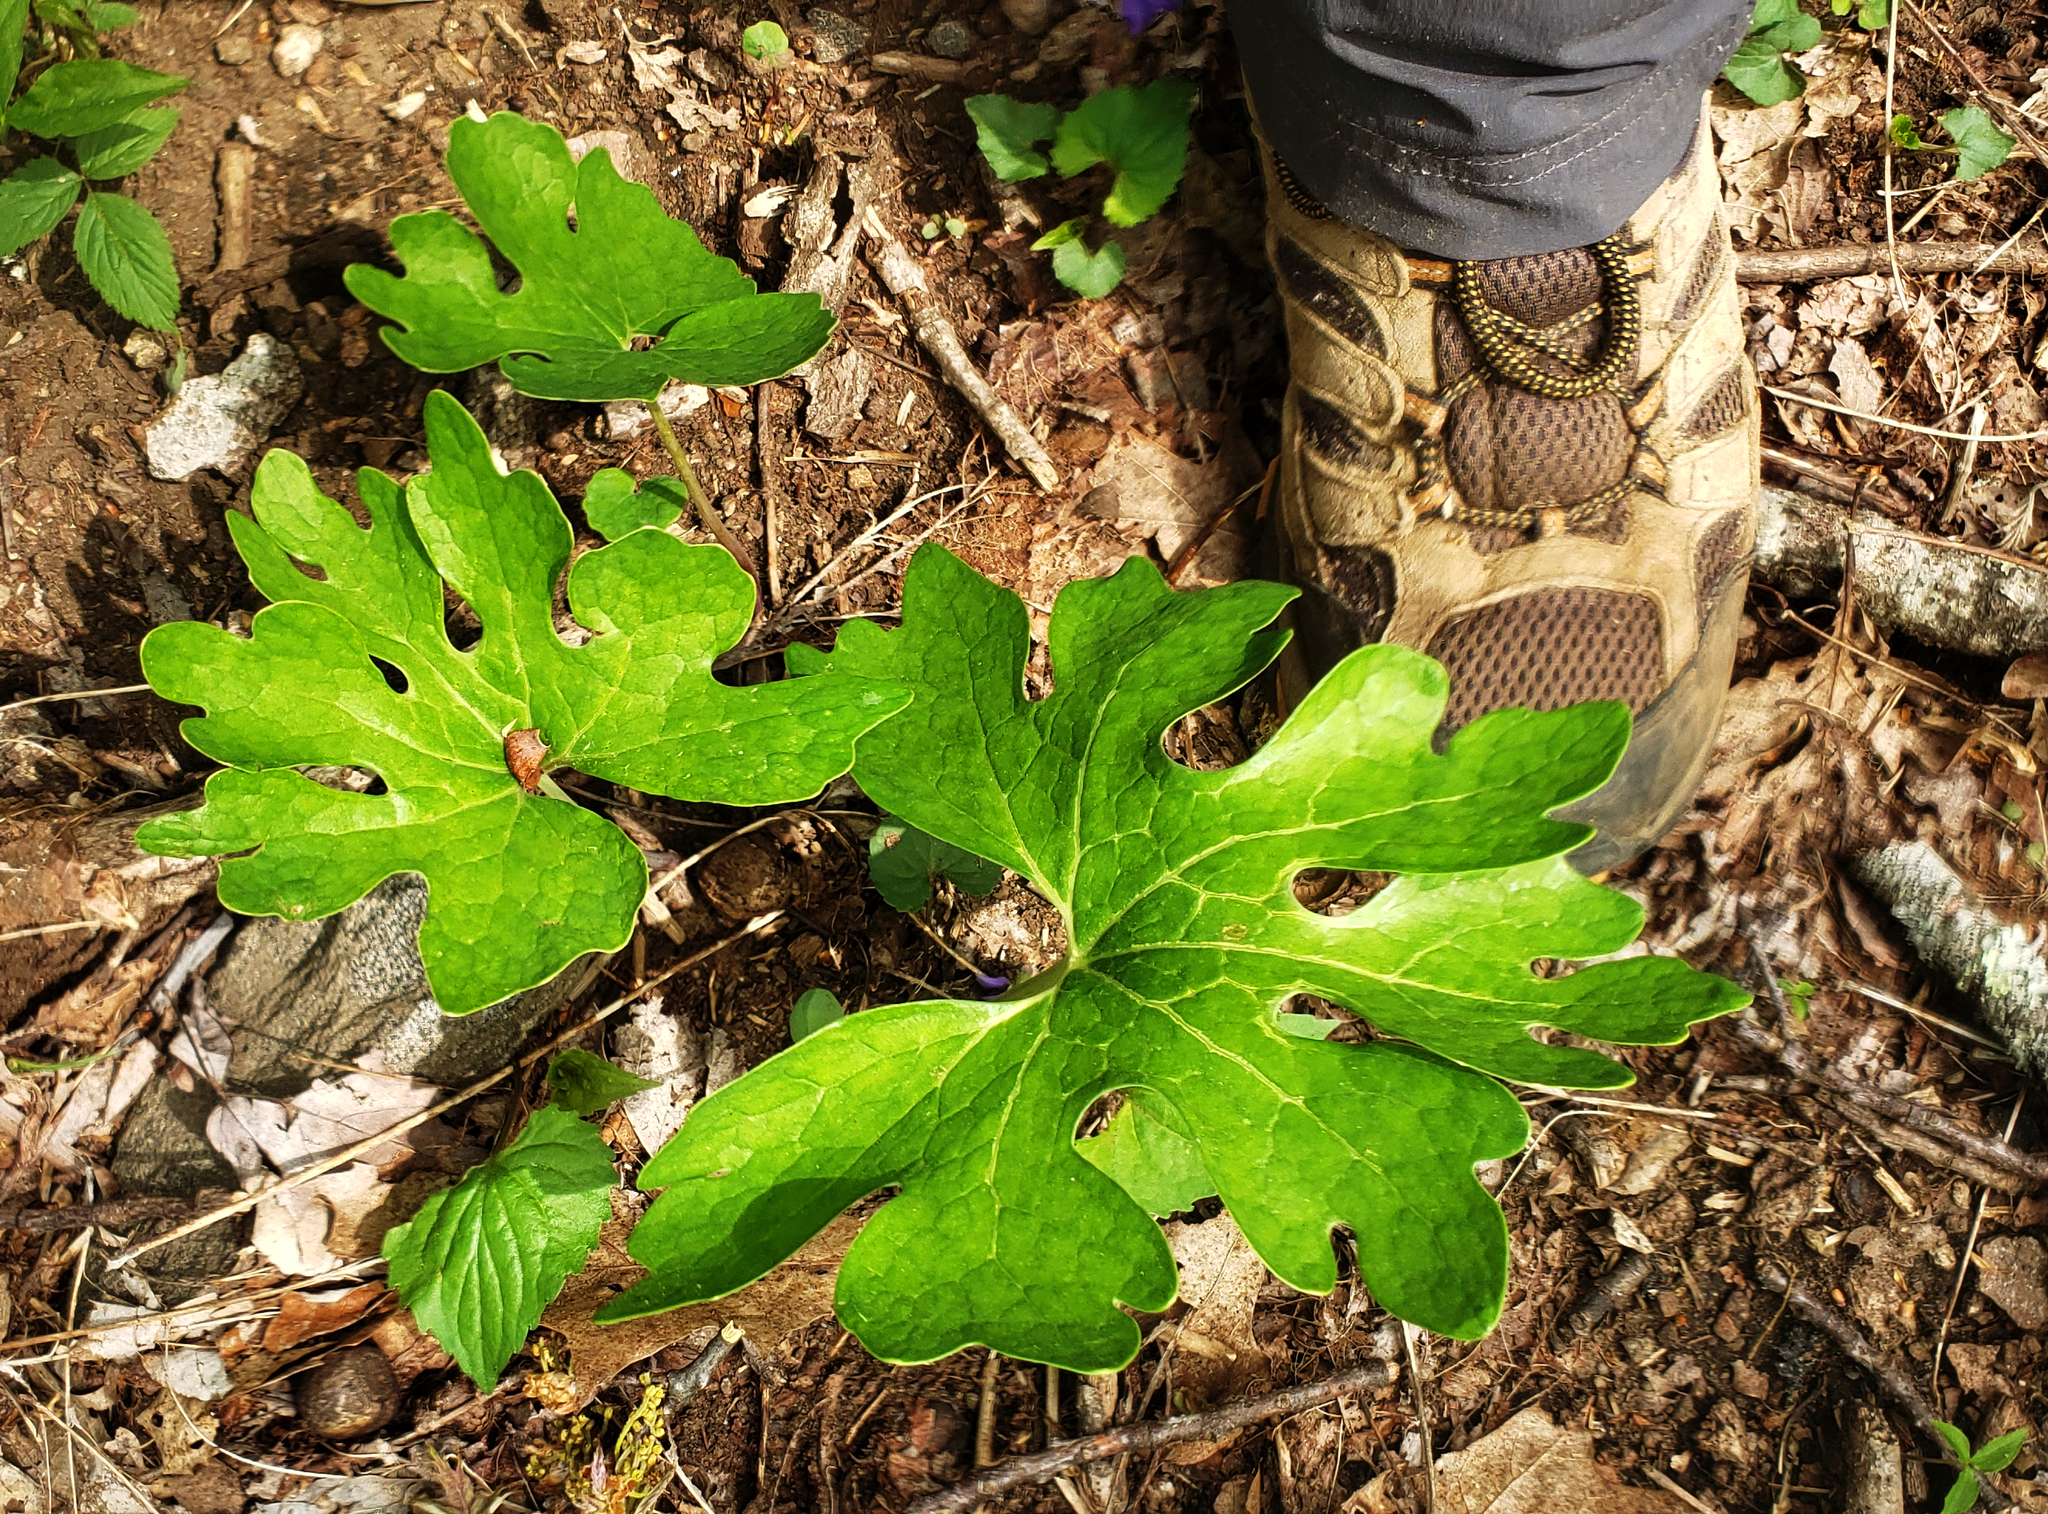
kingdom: Plantae
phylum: Tracheophyta
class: Magnoliopsida
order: Ranunculales
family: Papaveraceae
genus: Sanguinaria
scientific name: Sanguinaria canadensis
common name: Bloodroot
